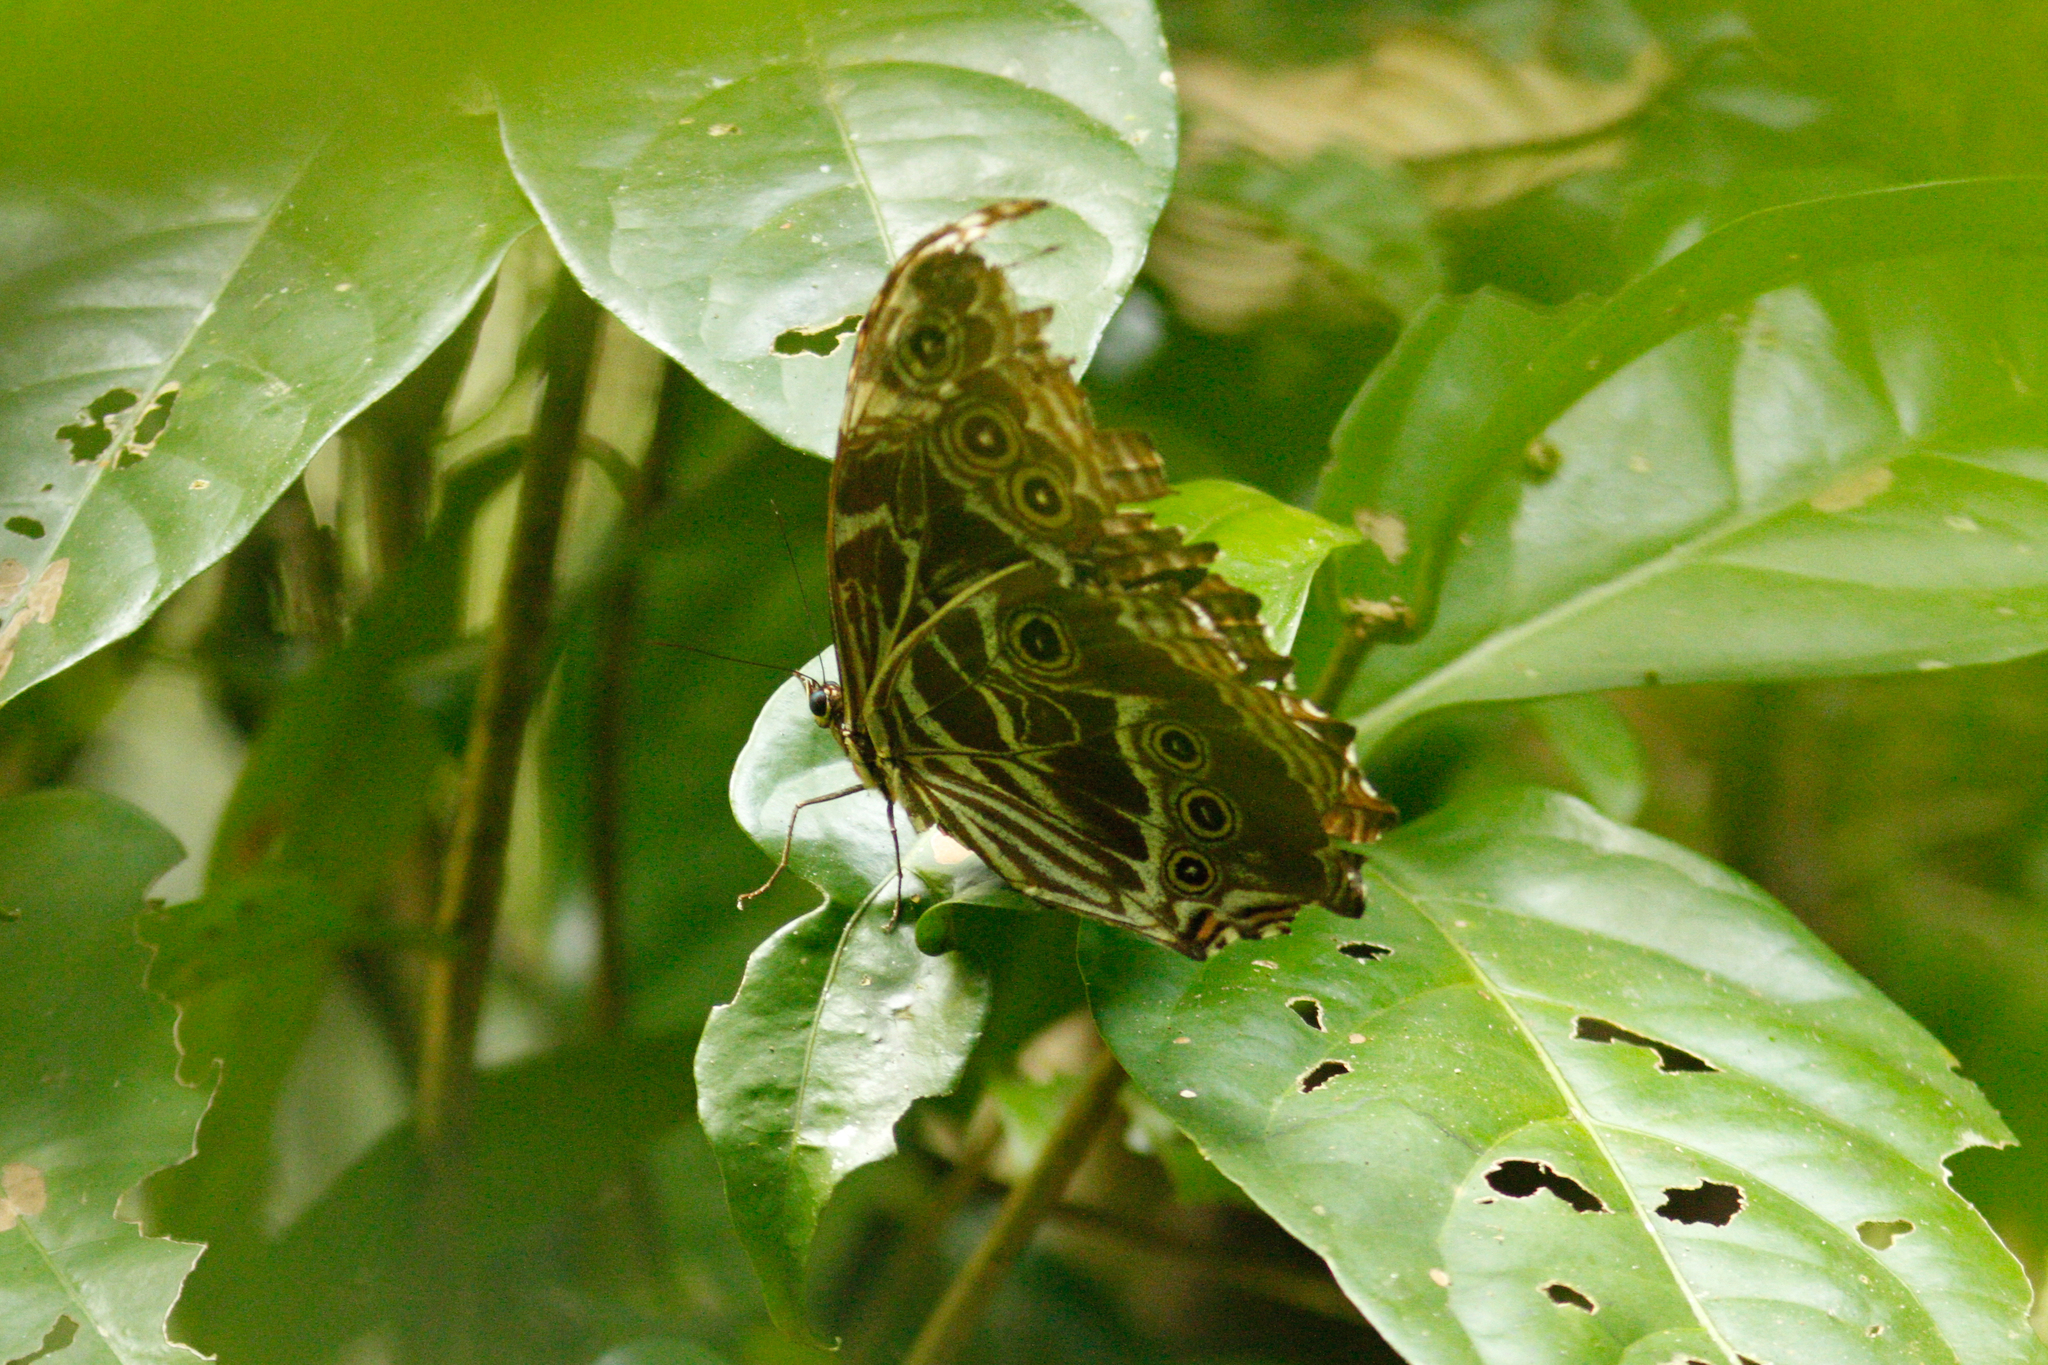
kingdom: Animalia
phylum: Arthropoda
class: Insecta
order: Lepidoptera
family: Nymphalidae
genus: Morpho
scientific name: Morpho deidamia
